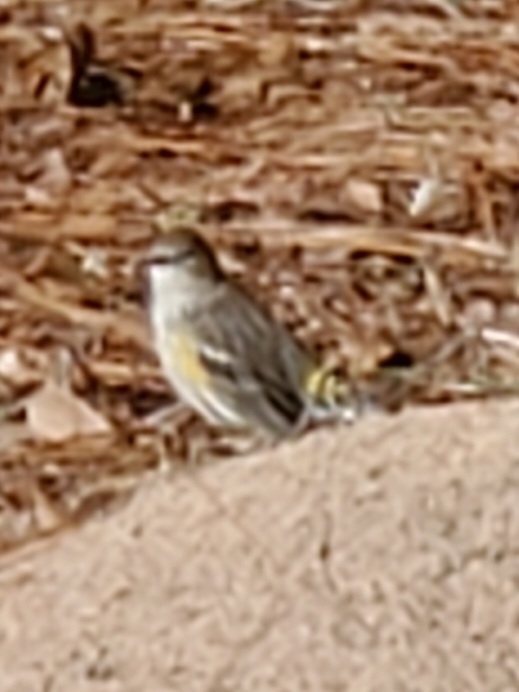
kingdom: Animalia
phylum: Chordata
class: Aves
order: Passeriformes
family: Parulidae
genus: Setophaga
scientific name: Setophaga coronata
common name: Myrtle warbler
